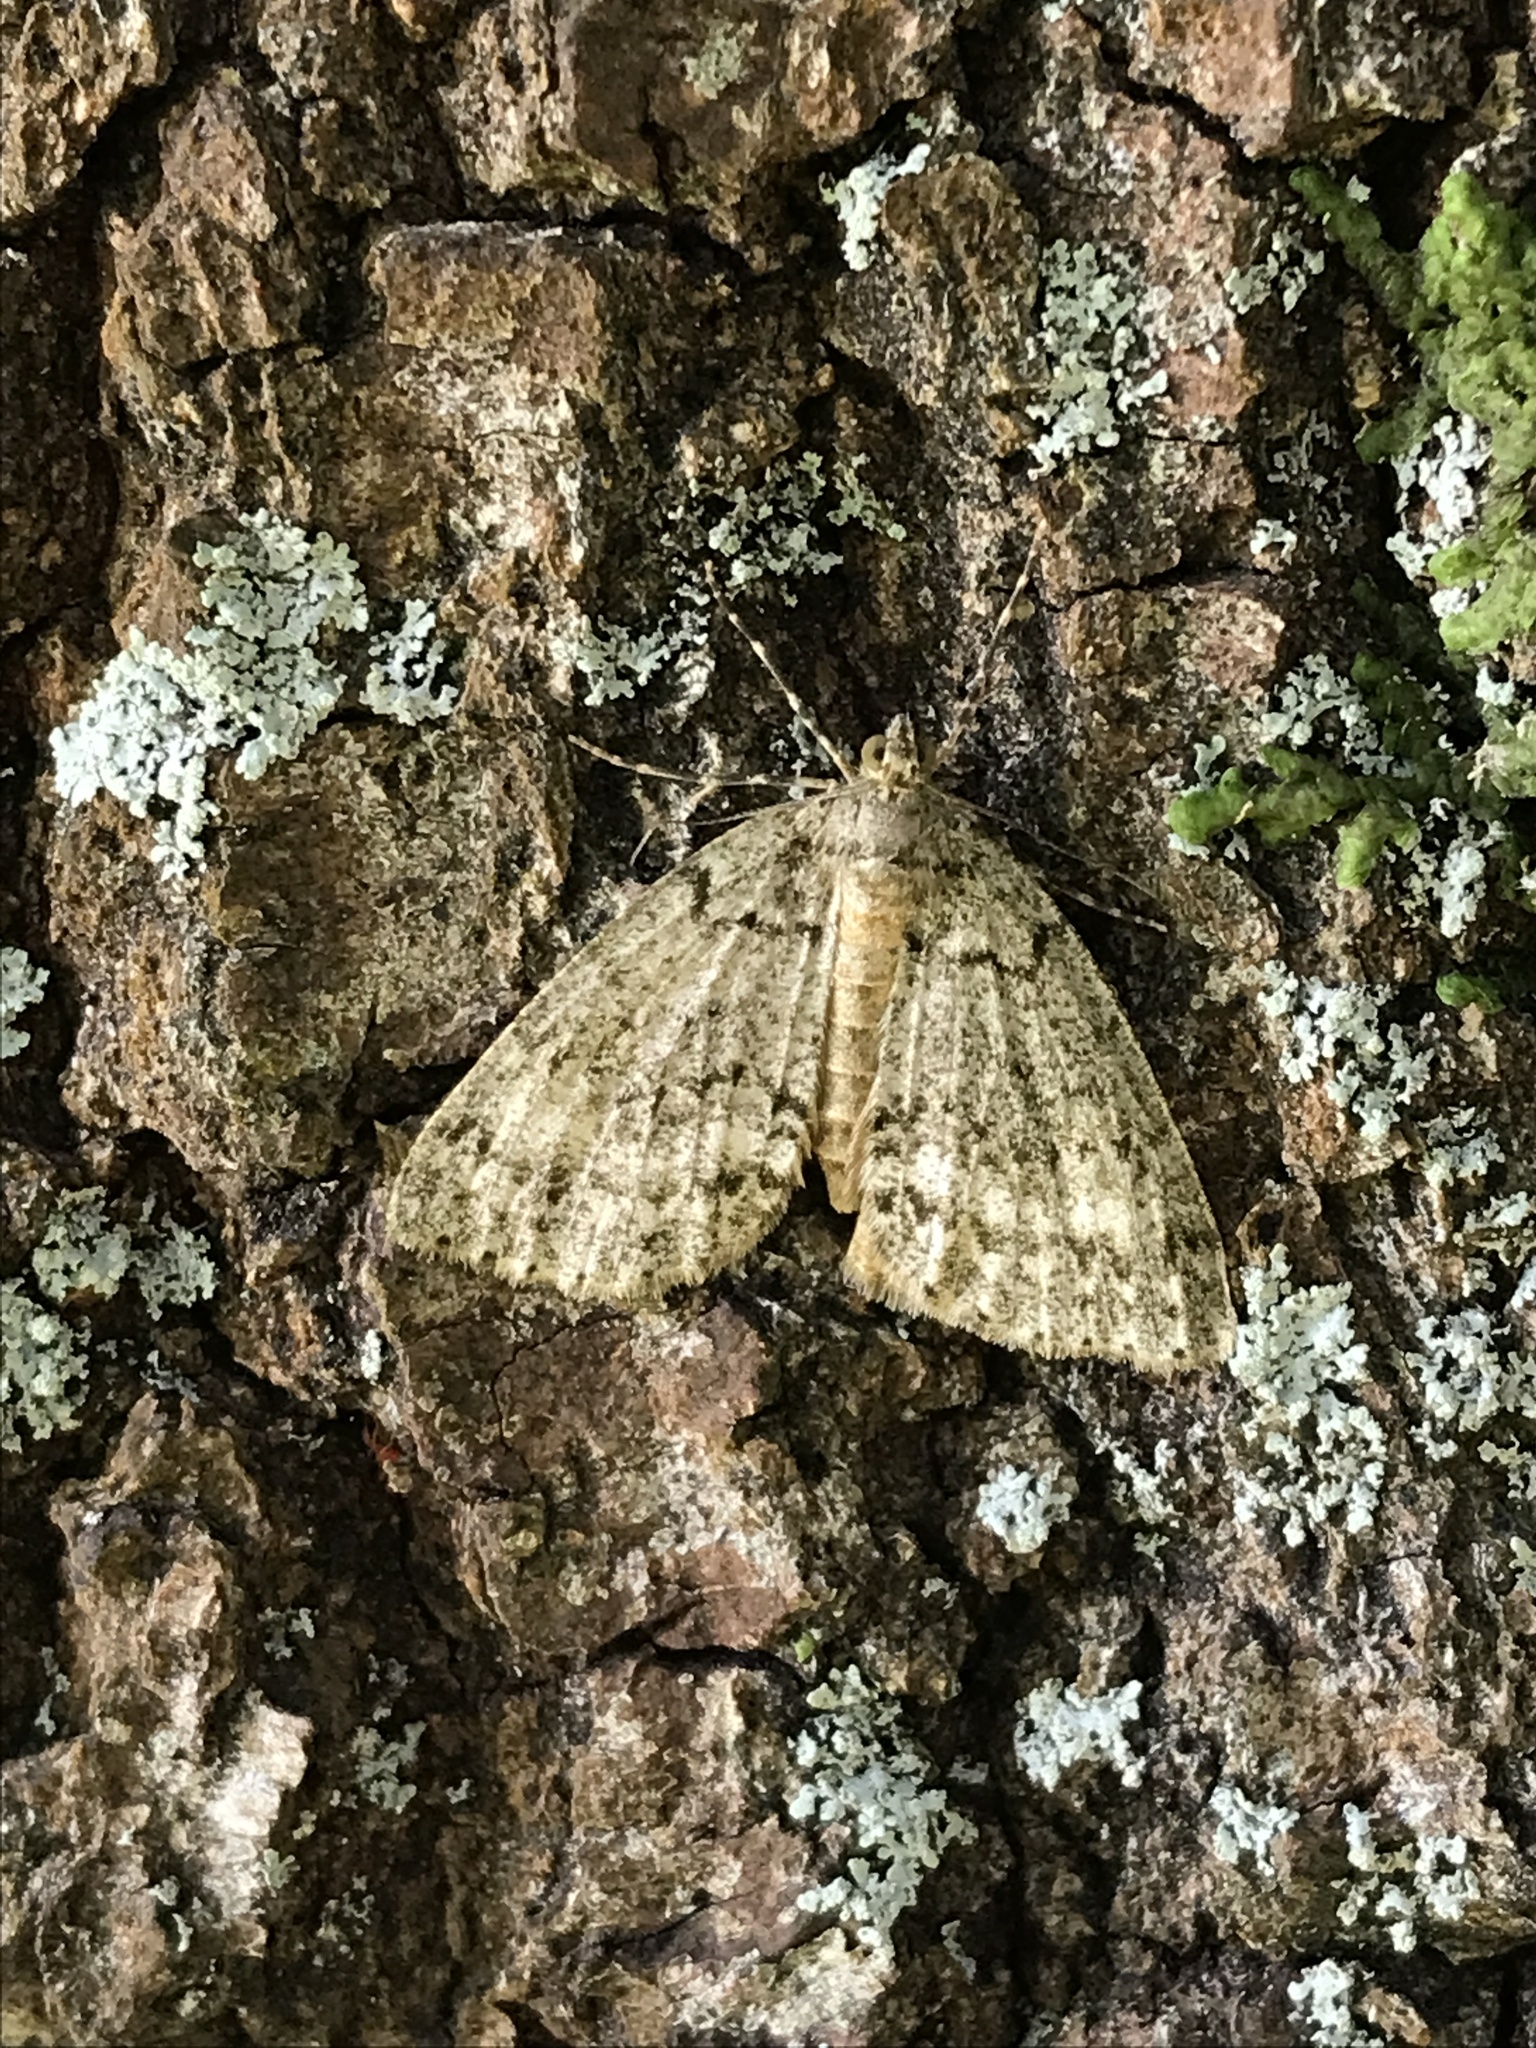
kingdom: Animalia
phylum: Arthropoda
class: Insecta
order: Lepidoptera
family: Geometridae
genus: Pseudocoremia
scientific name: Pseudocoremia indistincta
